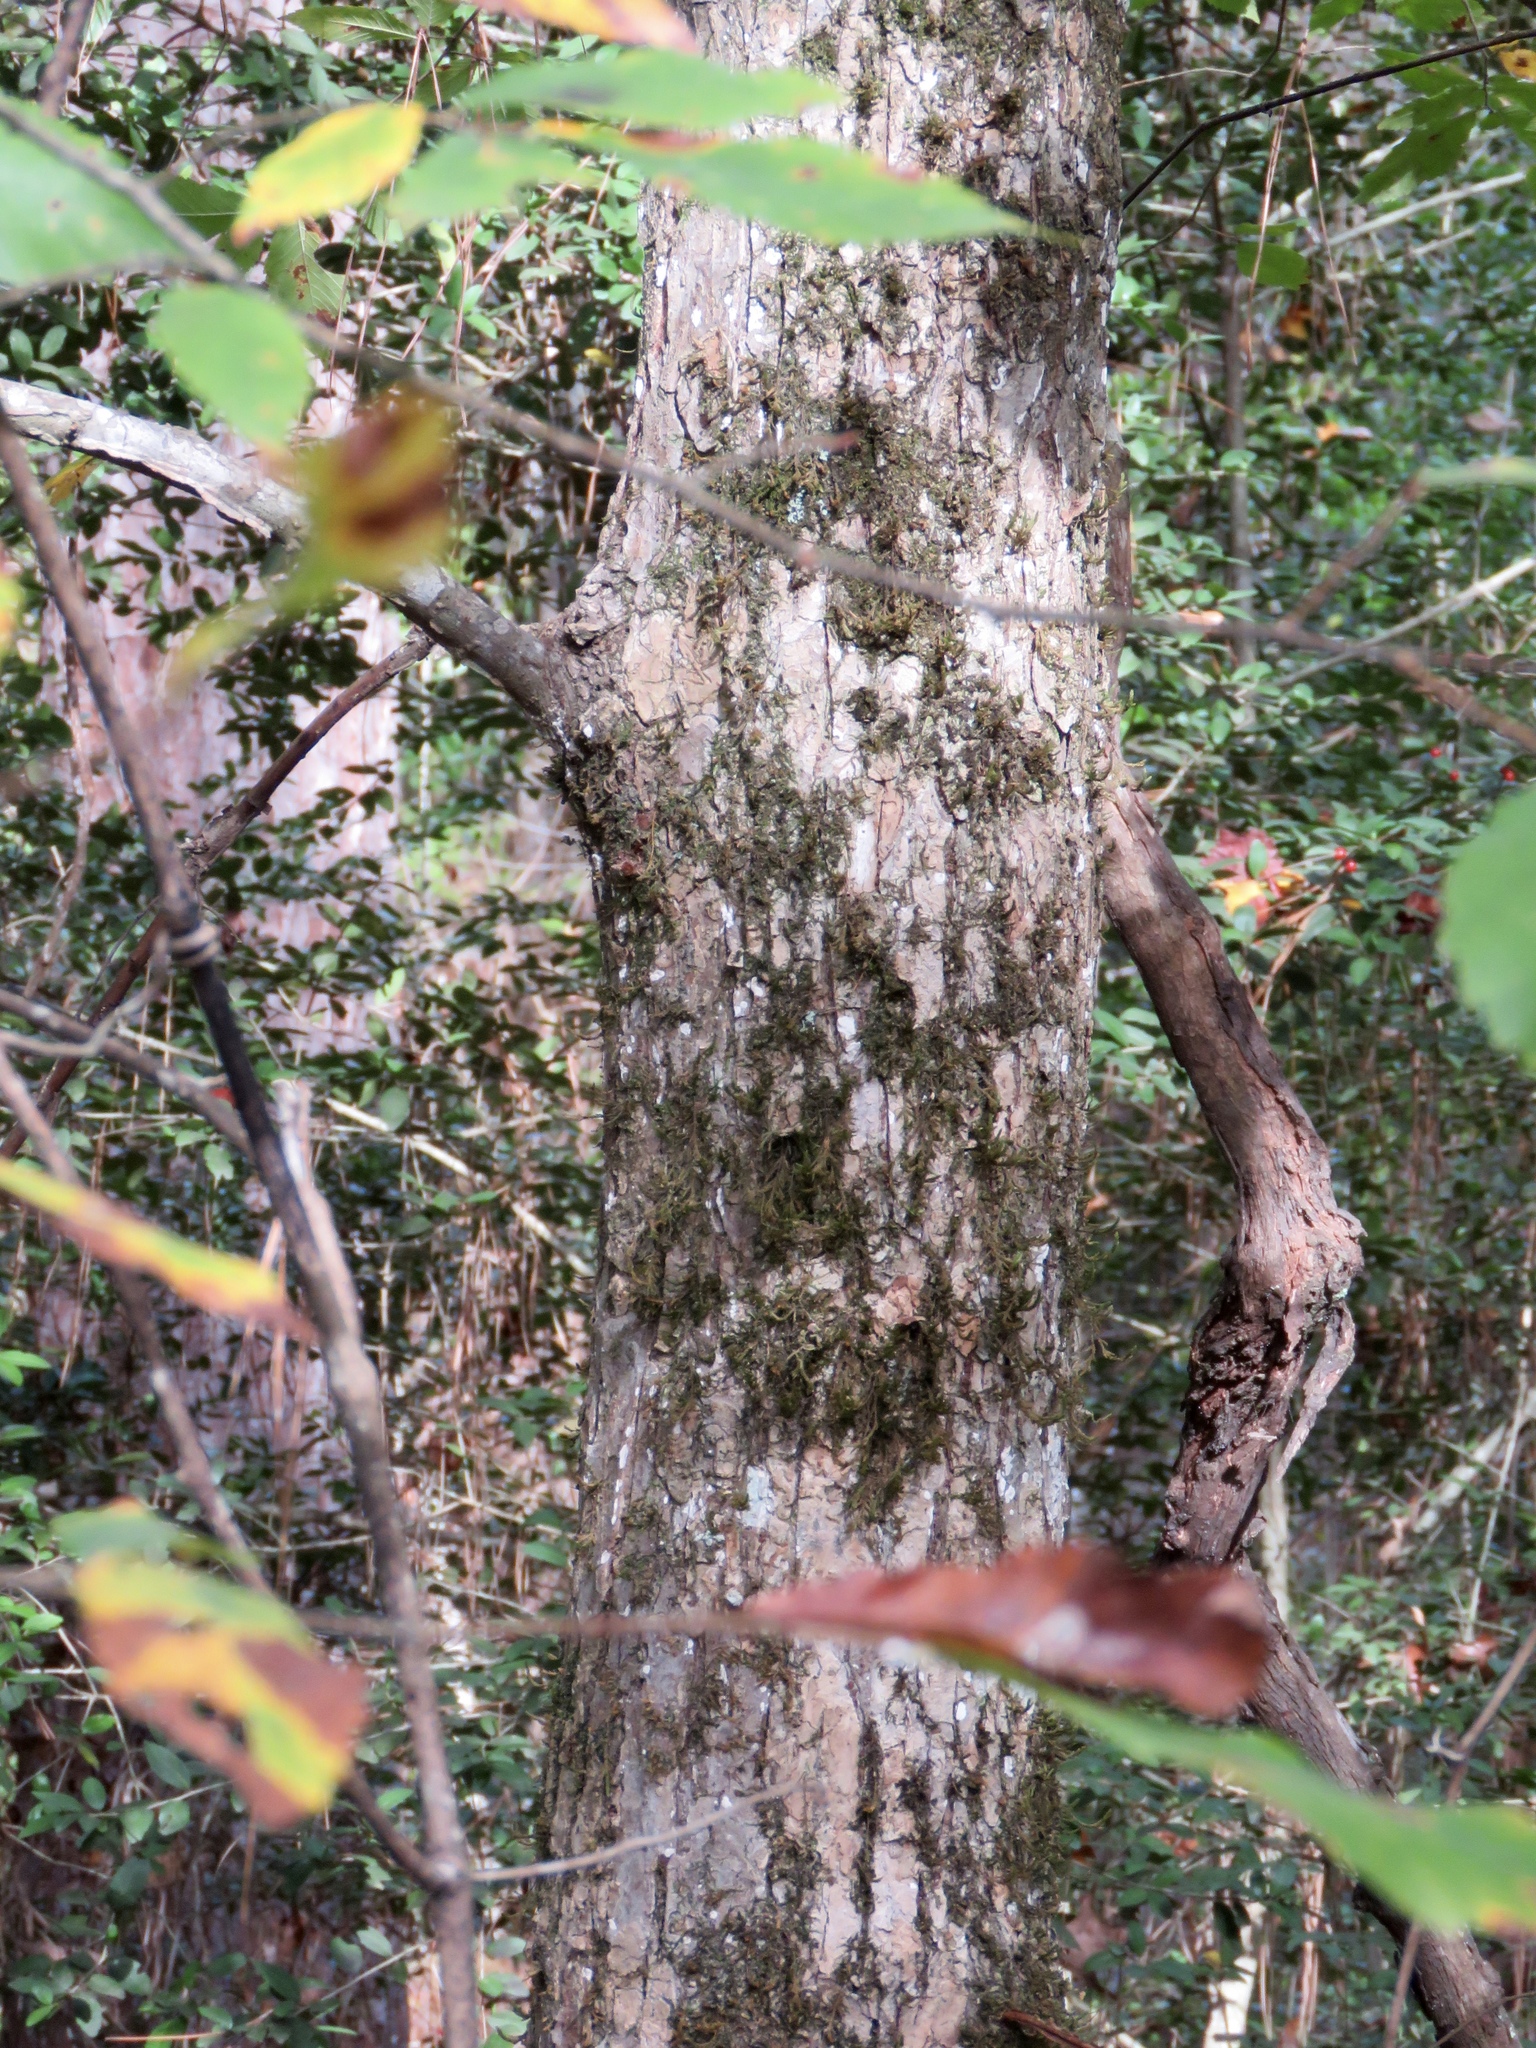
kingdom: Plantae
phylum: Tracheophyta
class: Magnoliopsida
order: Rosales
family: Ulmaceae
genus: Ulmus
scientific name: Ulmus alata
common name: Winged elm
